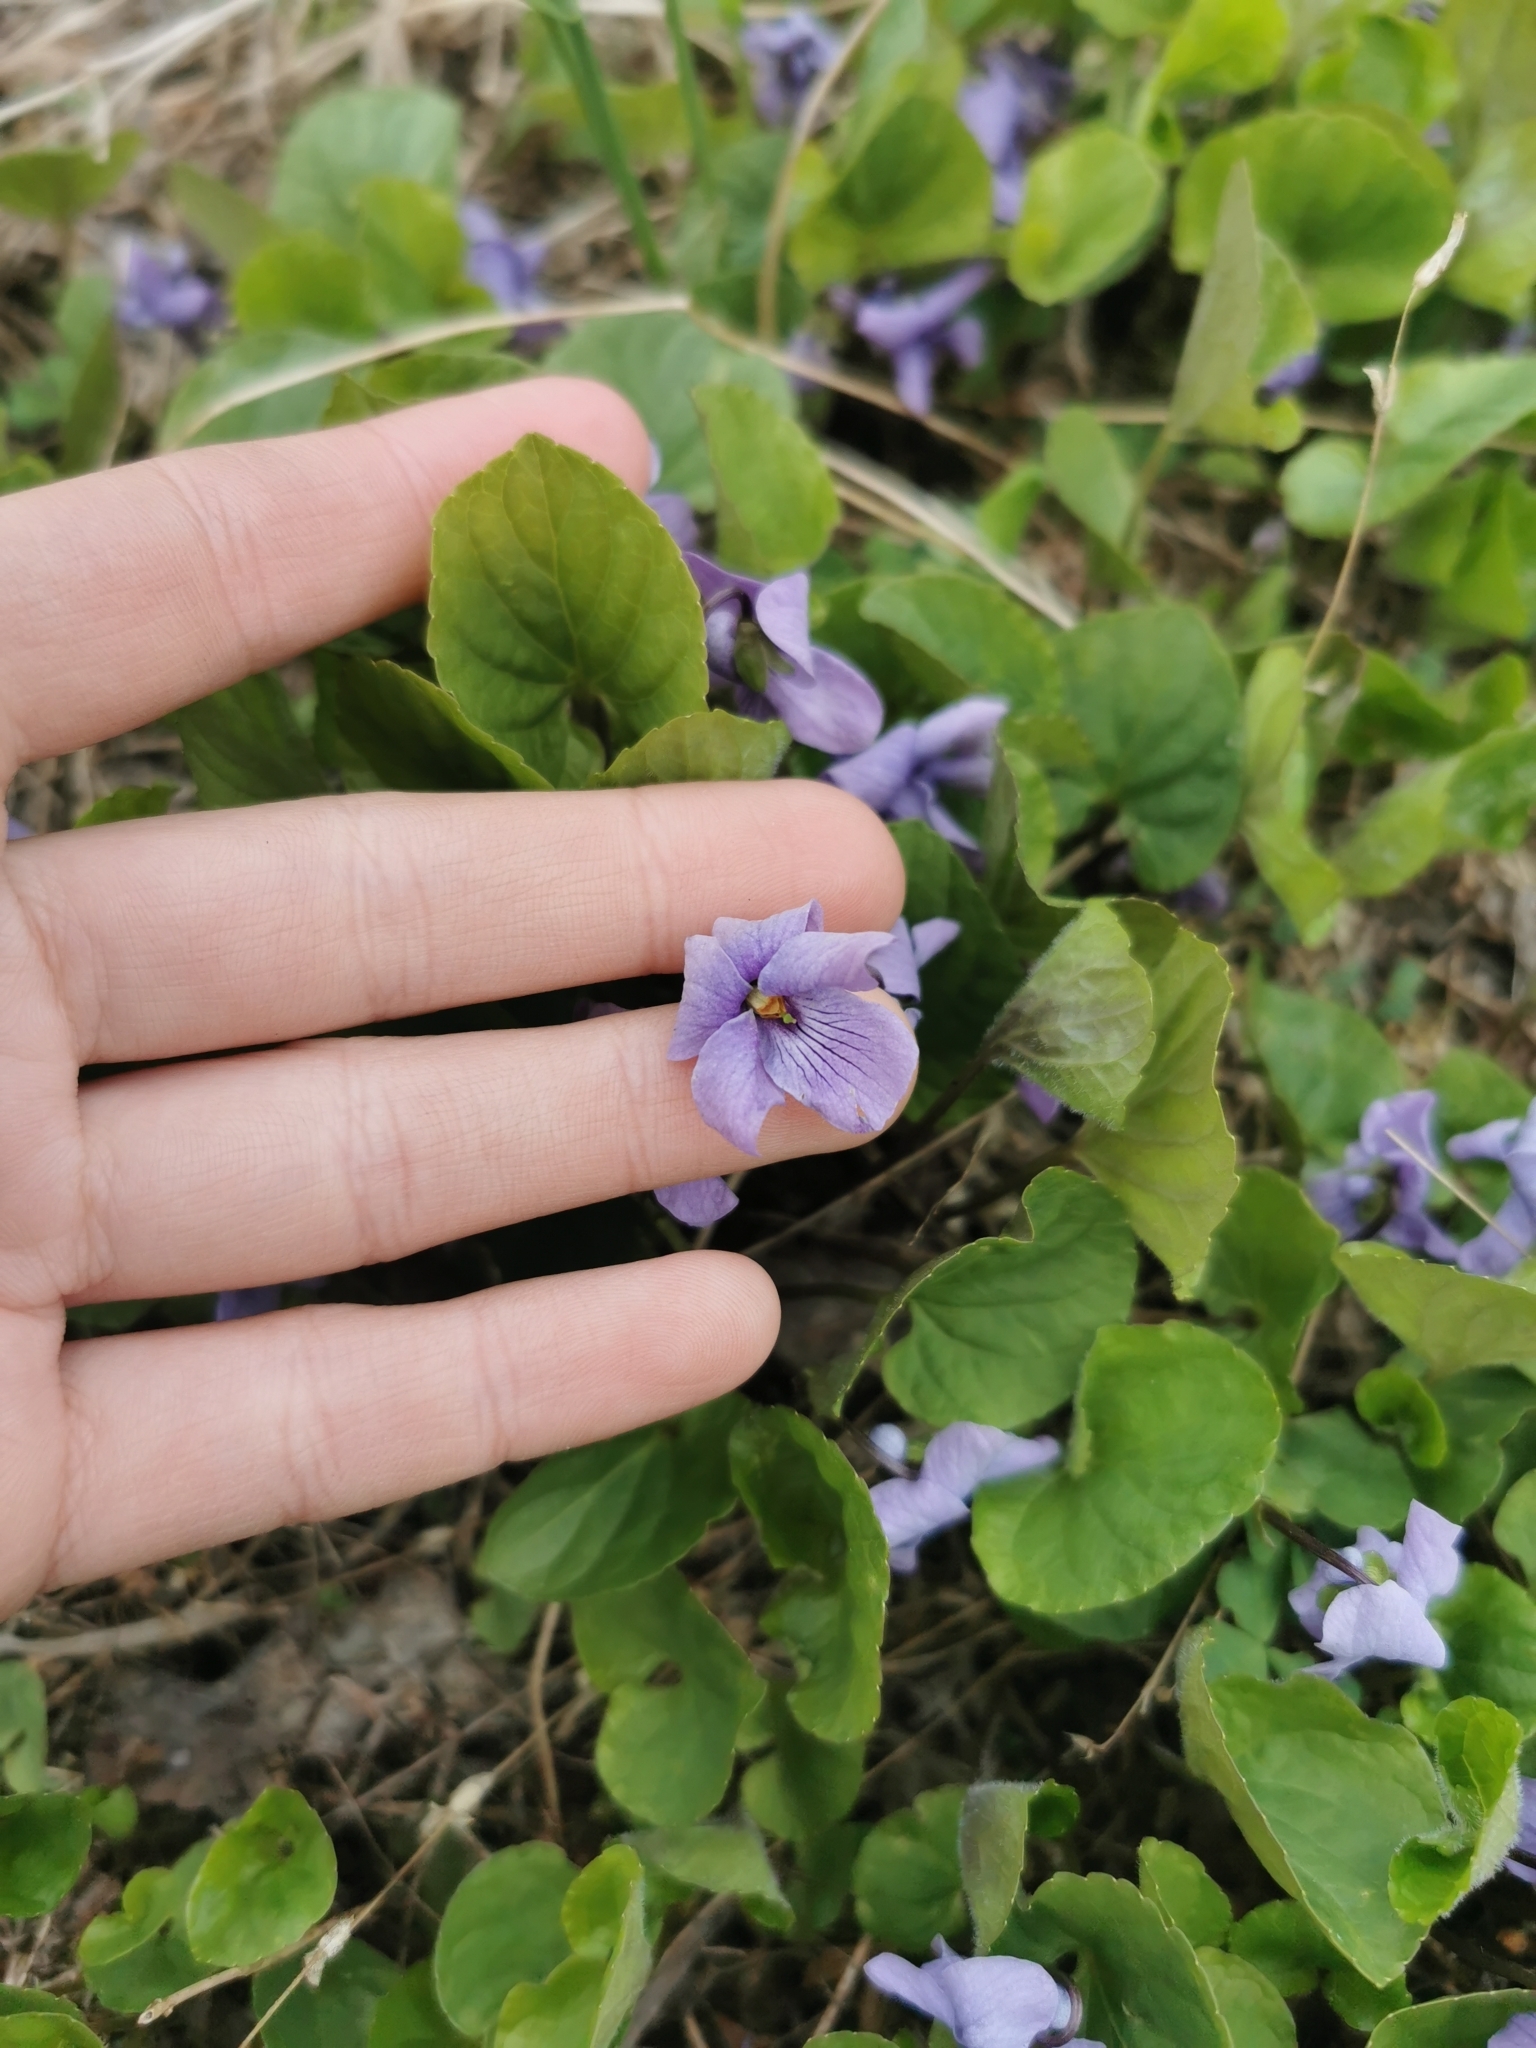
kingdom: Plantae
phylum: Tracheophyta
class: Magnoliopsida
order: Malpighiales
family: Violaceae
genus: Viola
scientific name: Viola epipsila
